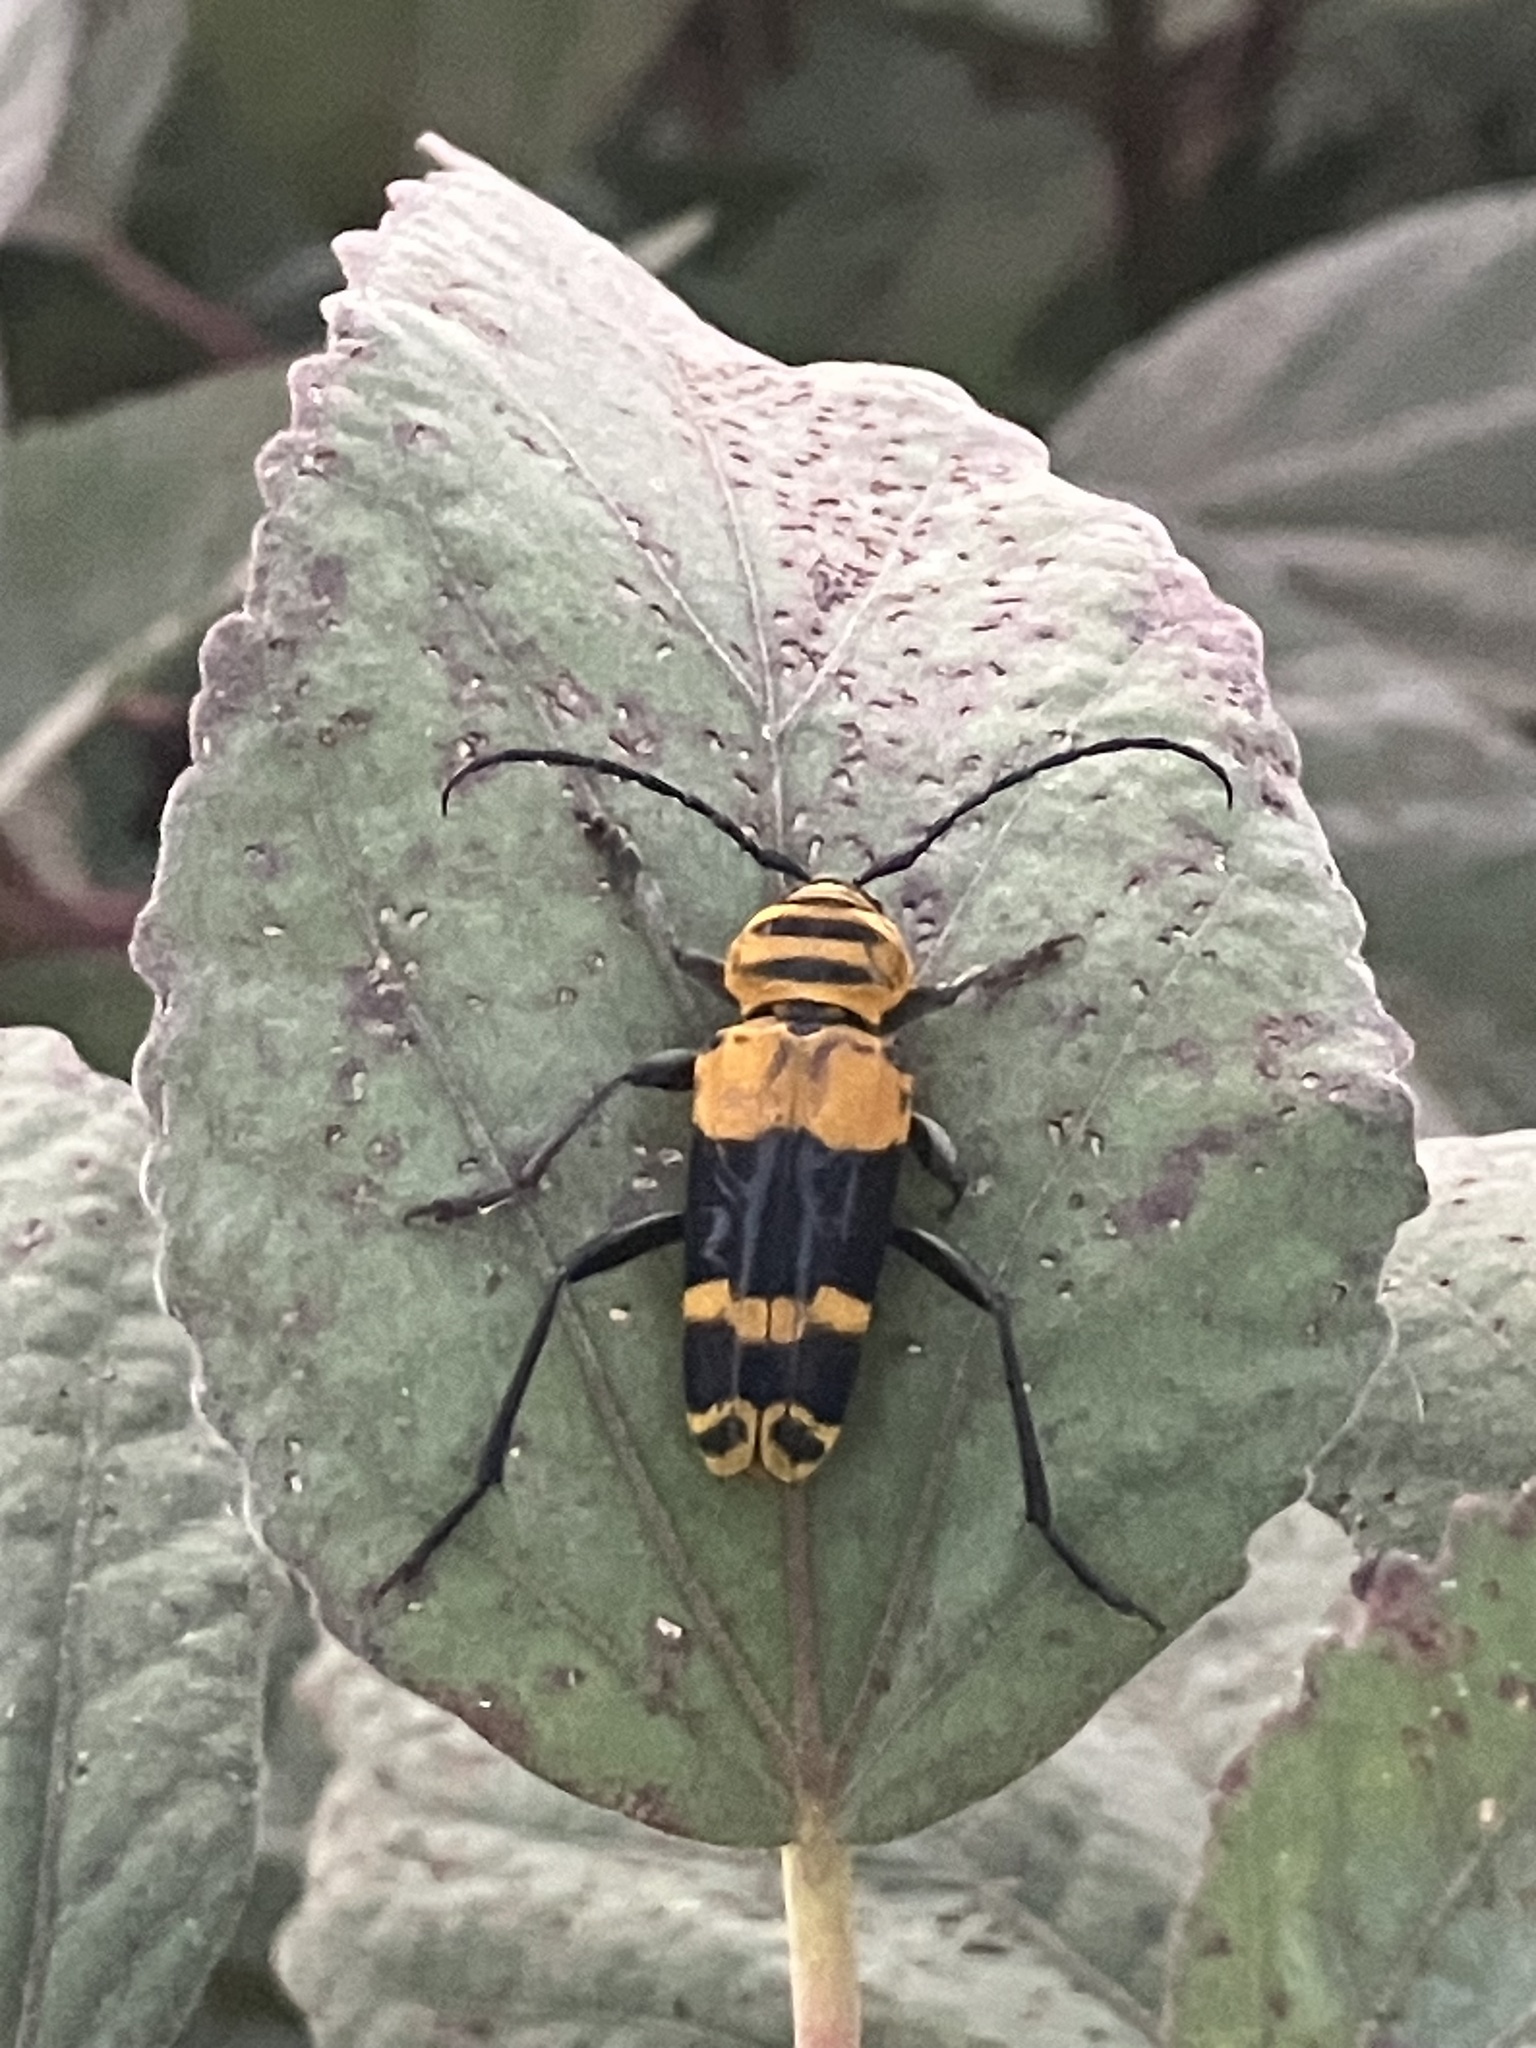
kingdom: Animalia
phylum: Arthropoda
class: Insecta
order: Coleoptera
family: Cerambycidae
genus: Megacyllene
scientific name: Megacyllene decora
